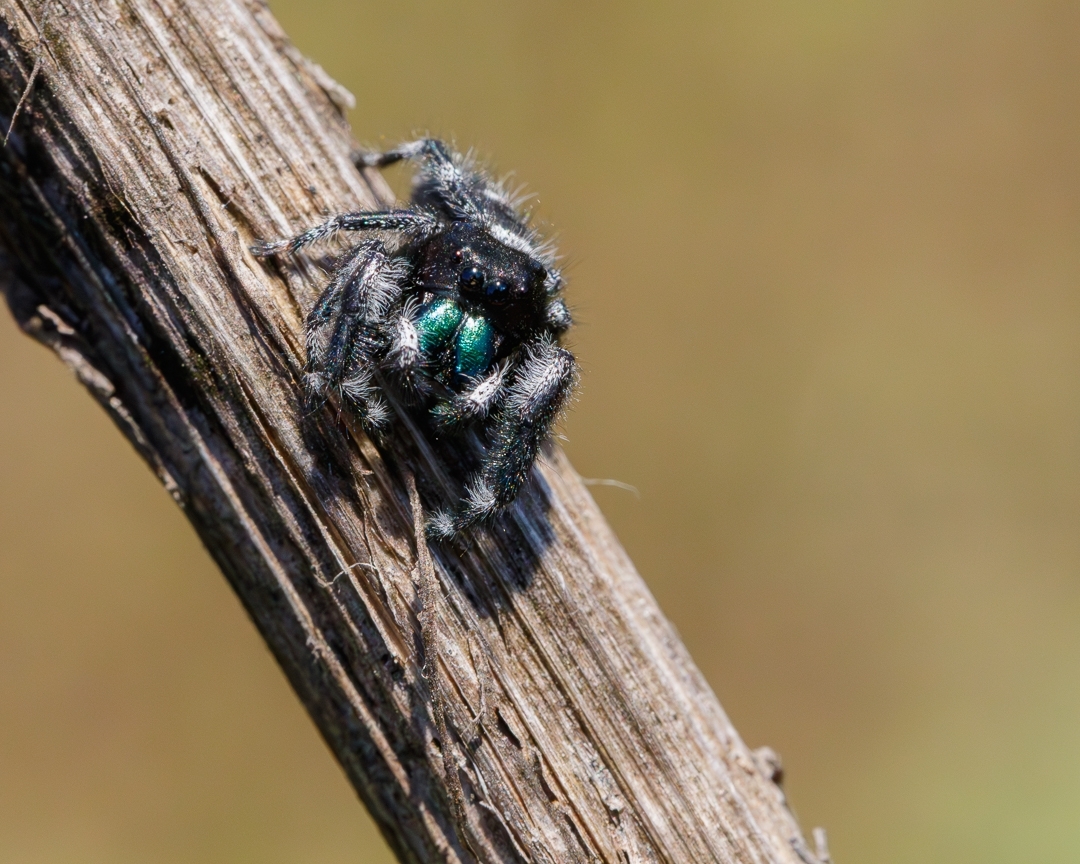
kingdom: Animalia
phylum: Arthropoda
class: Arachnida
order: Araneae
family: Salticidae
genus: Phidippus
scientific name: Phidippus audax
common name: Bold jumper
